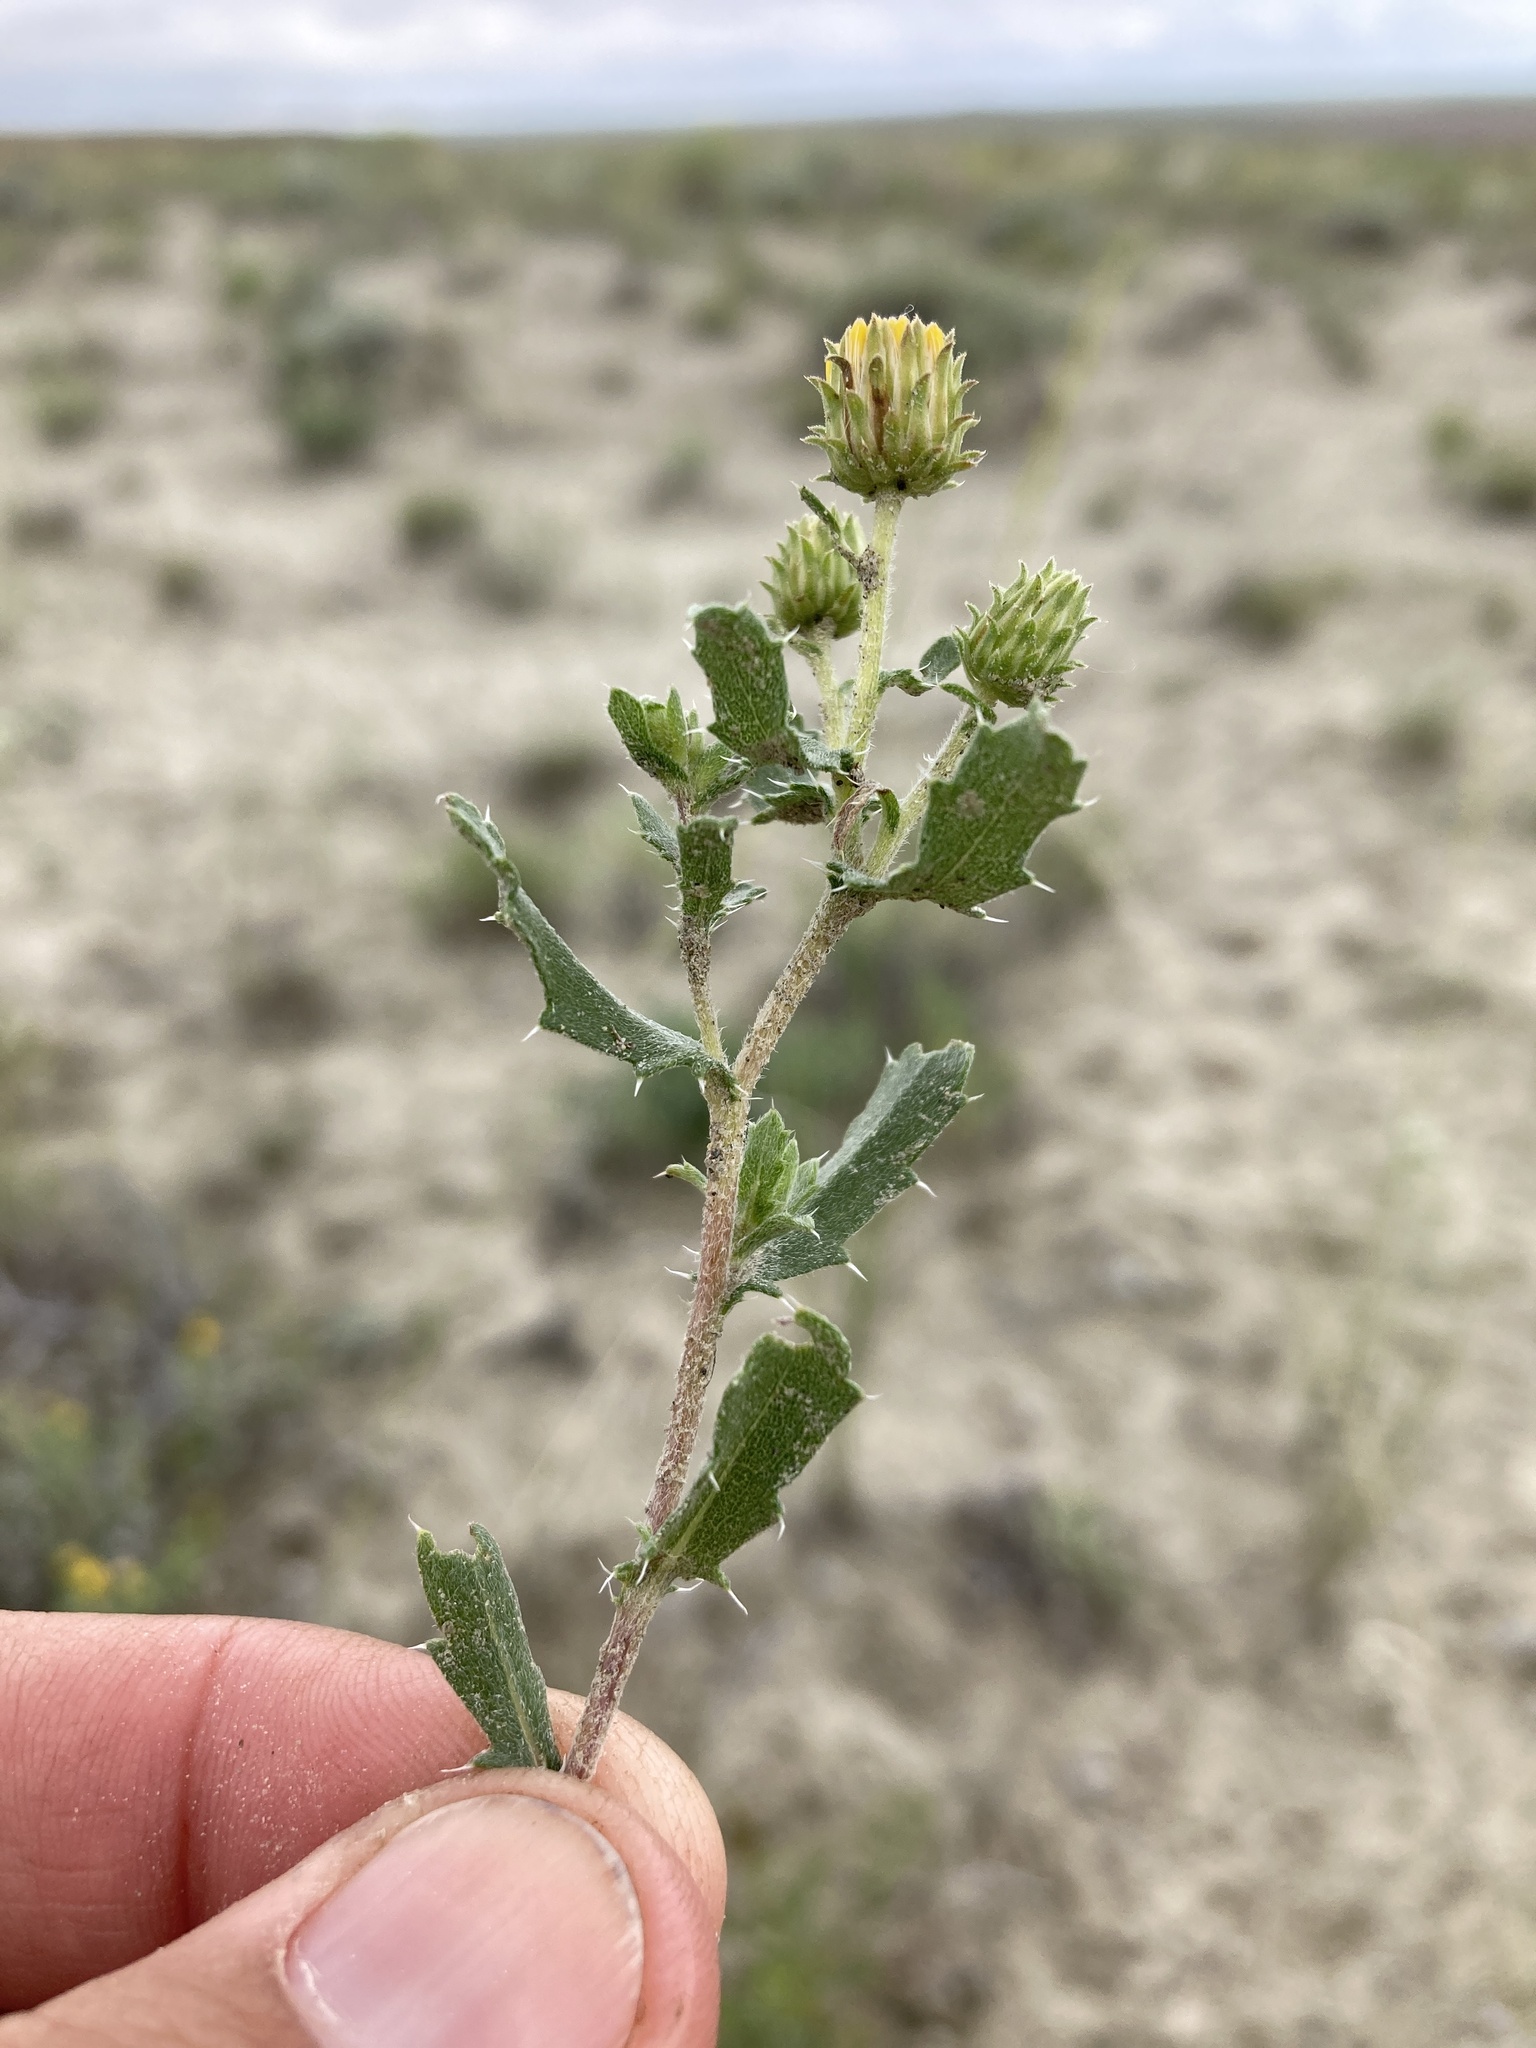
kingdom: Plantae
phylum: Tracheophyta
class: Magnoliopsida
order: Asterales
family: Asteraceae
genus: Xanthisma
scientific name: Xanthisma grindelioides
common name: Goldenweed
